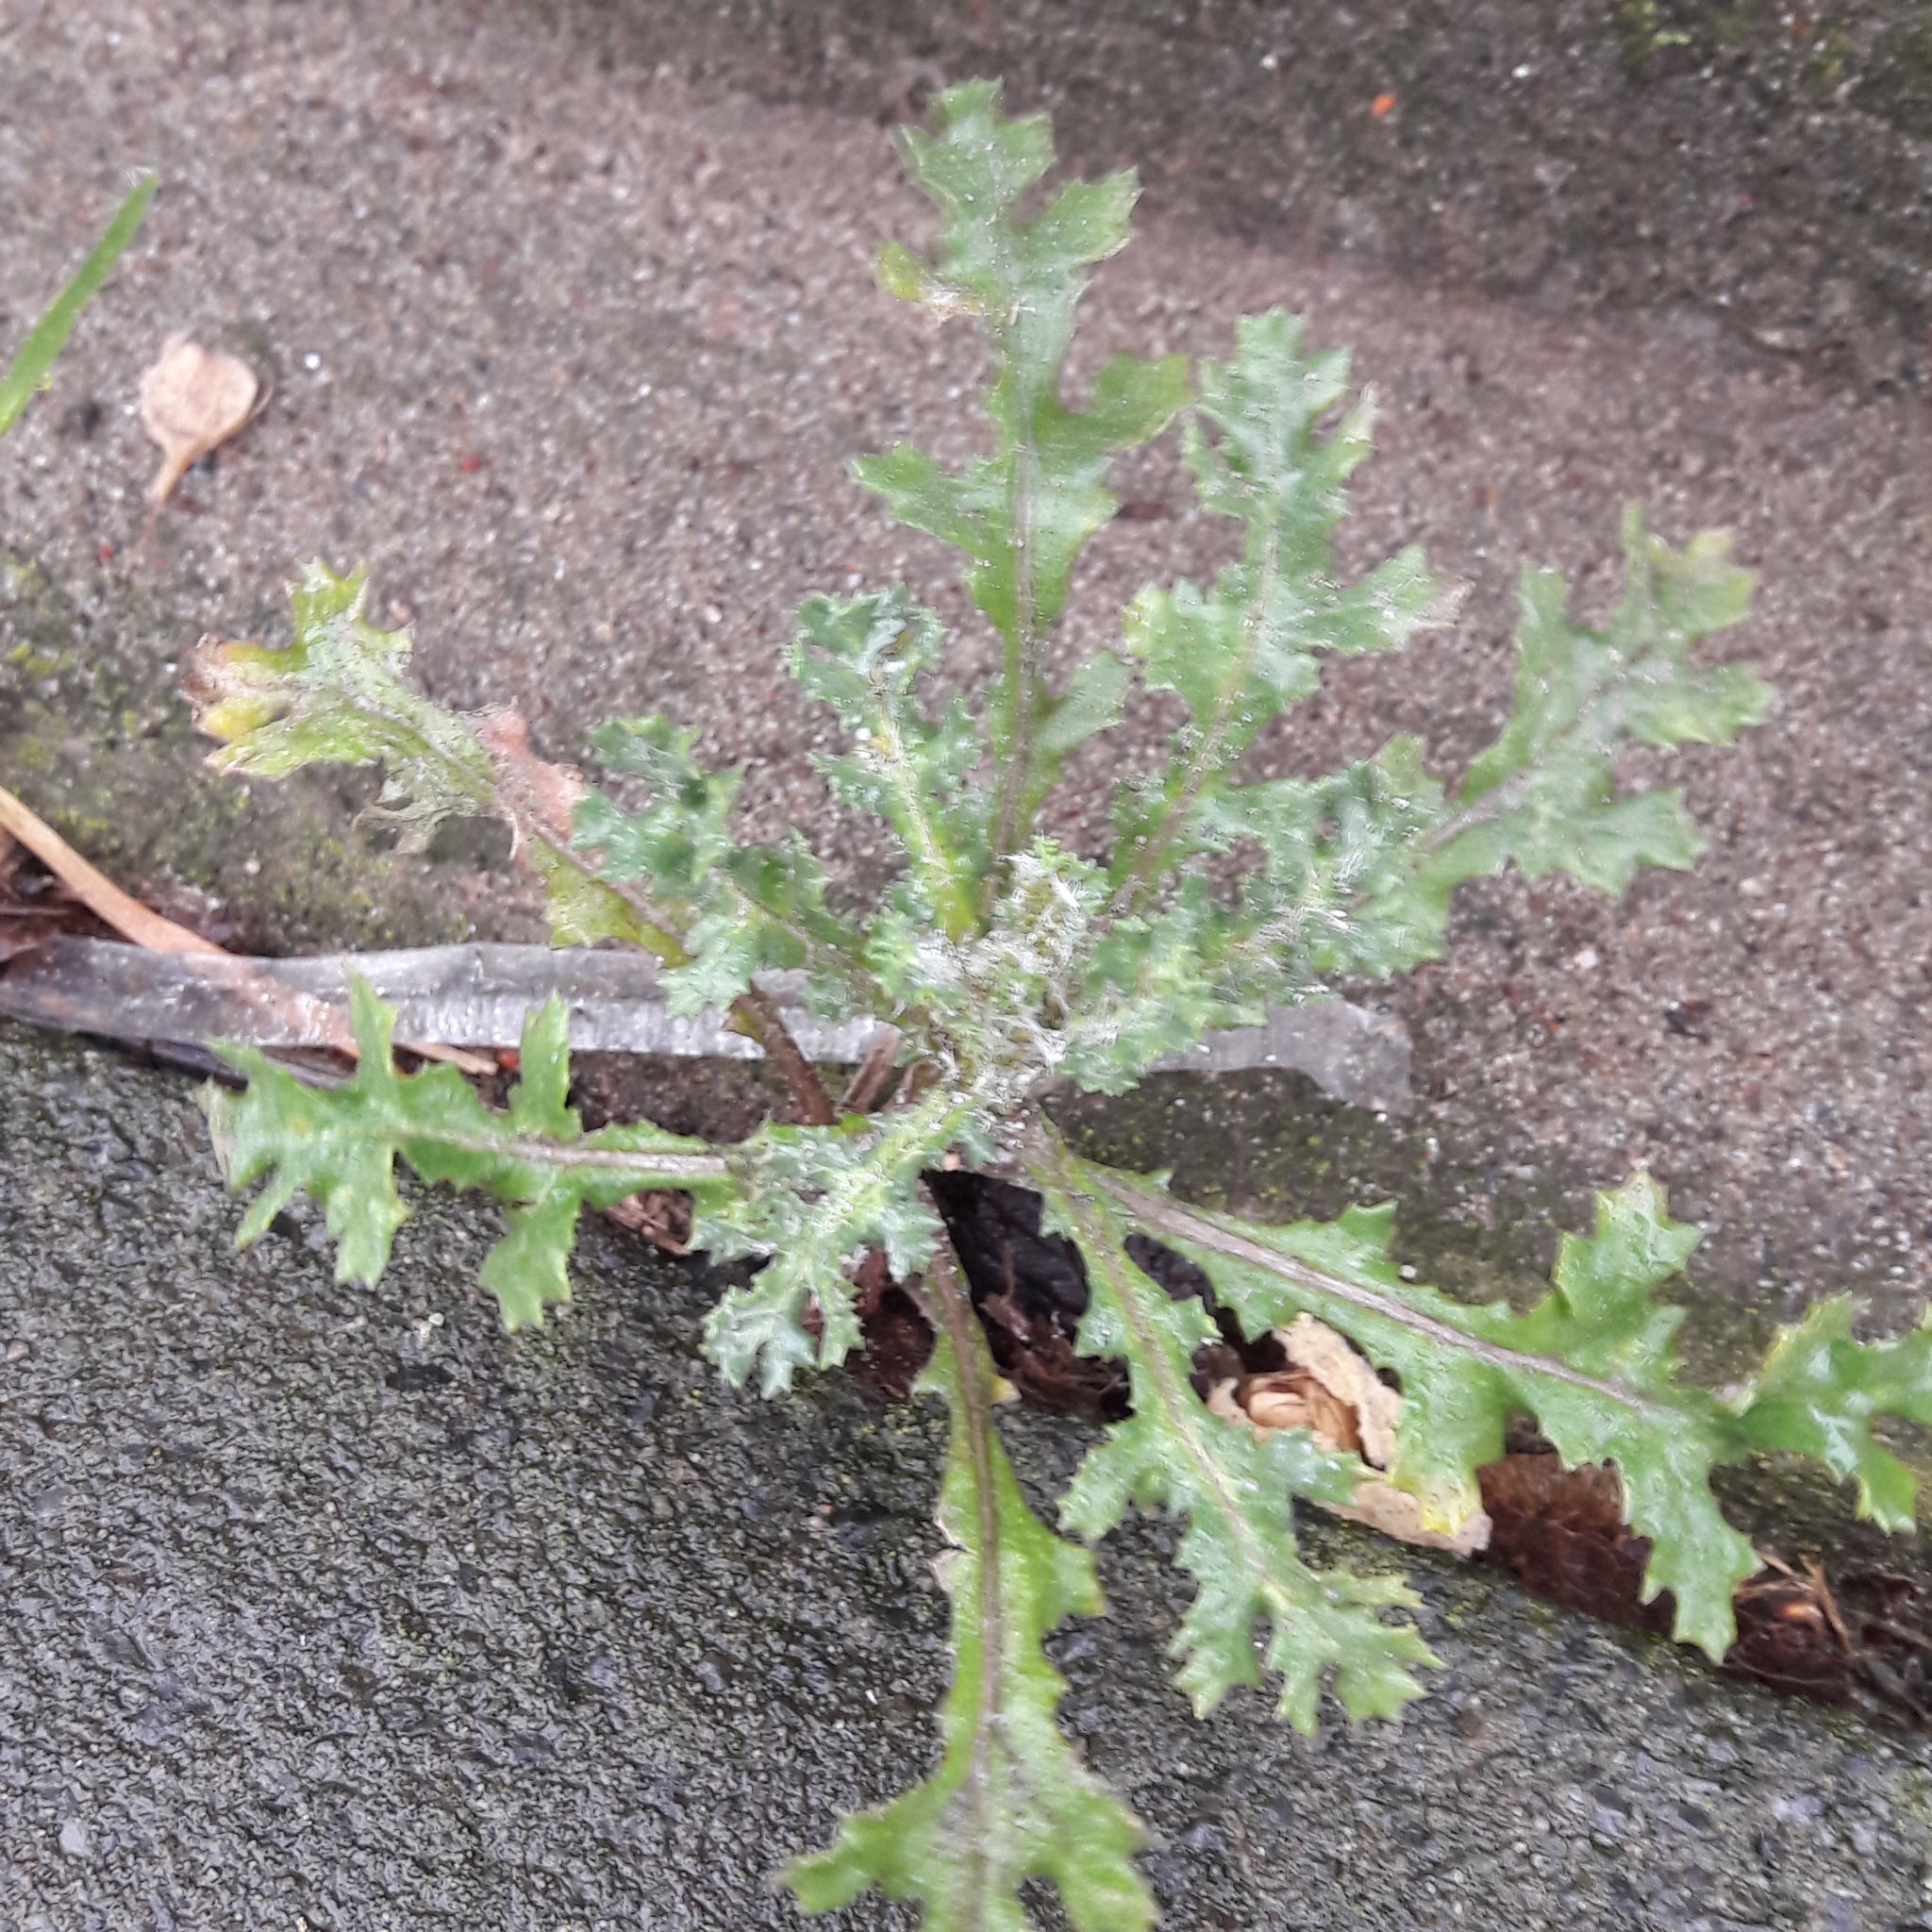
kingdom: Plantae
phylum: Tracheophyta
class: Magnoliopsida
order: Asterales
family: Asteraceae
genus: Senecio
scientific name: Senecio vulgaris
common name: Old-man-in-the-spring
